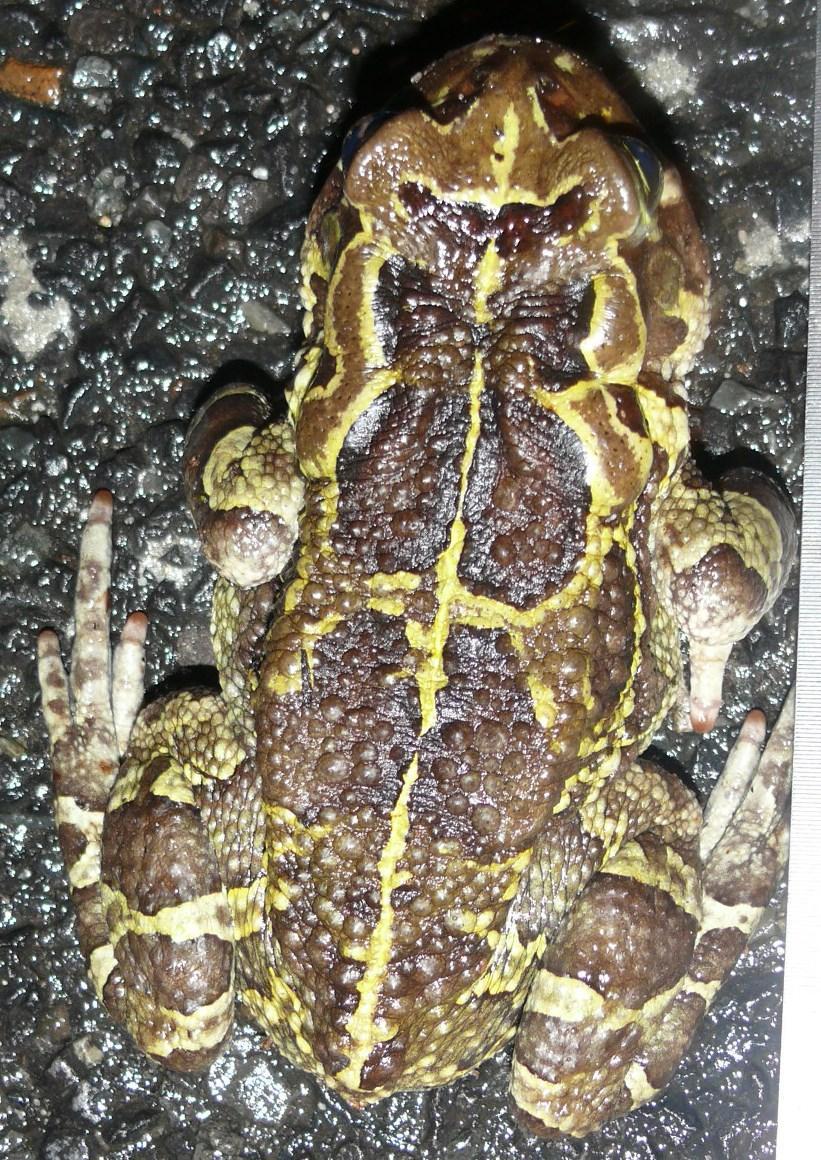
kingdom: Animalia
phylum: Chordata
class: Amphibia
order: Anura
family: Bufonidae
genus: Sclerophrys
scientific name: Sclerophrys pantherina
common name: Panther toad
